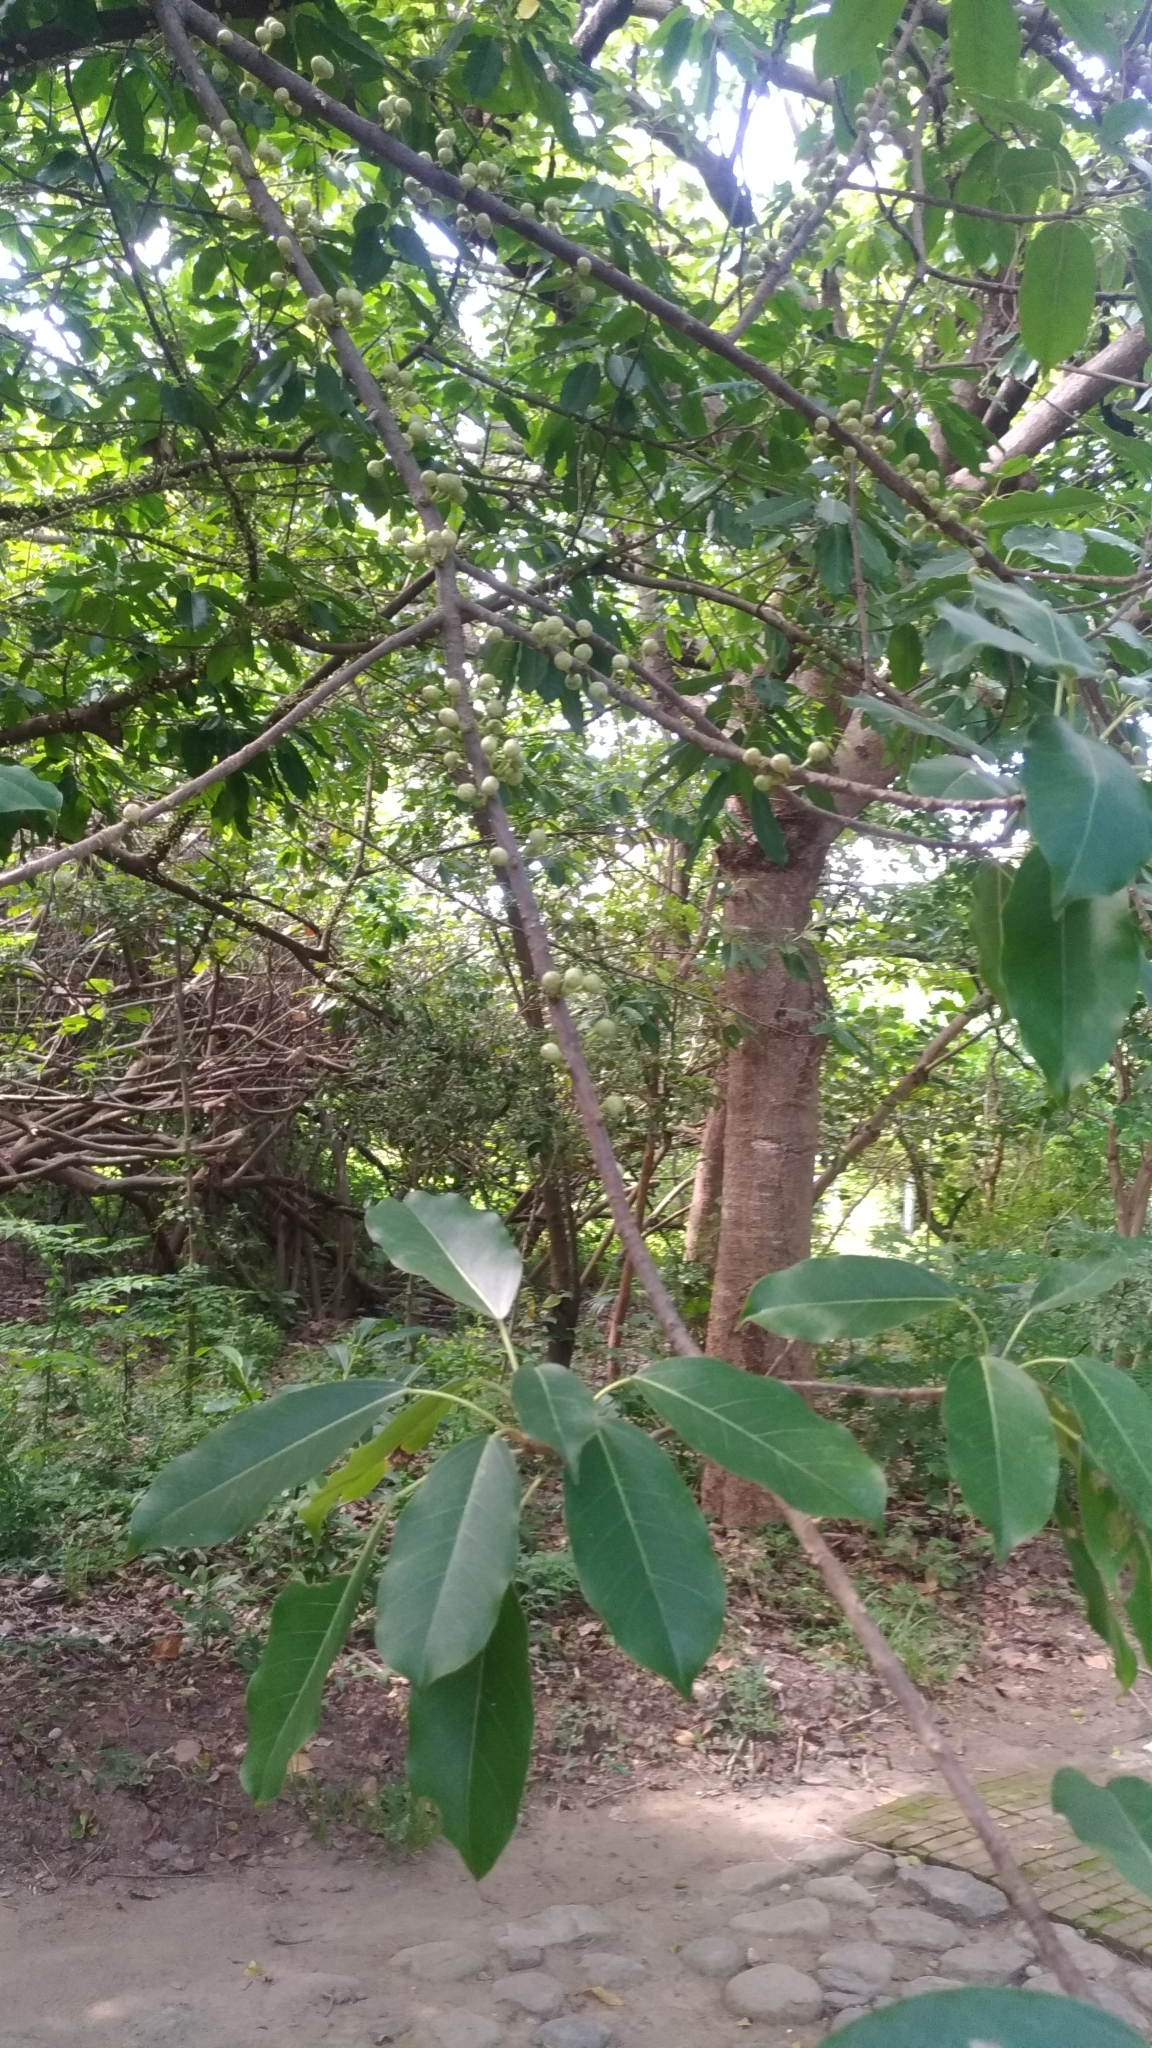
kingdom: Plantae
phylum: Tracheophyta
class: Magnoliopsida
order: Rosales
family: Moraceae
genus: Ficus
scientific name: Ficus subpisocarpa
